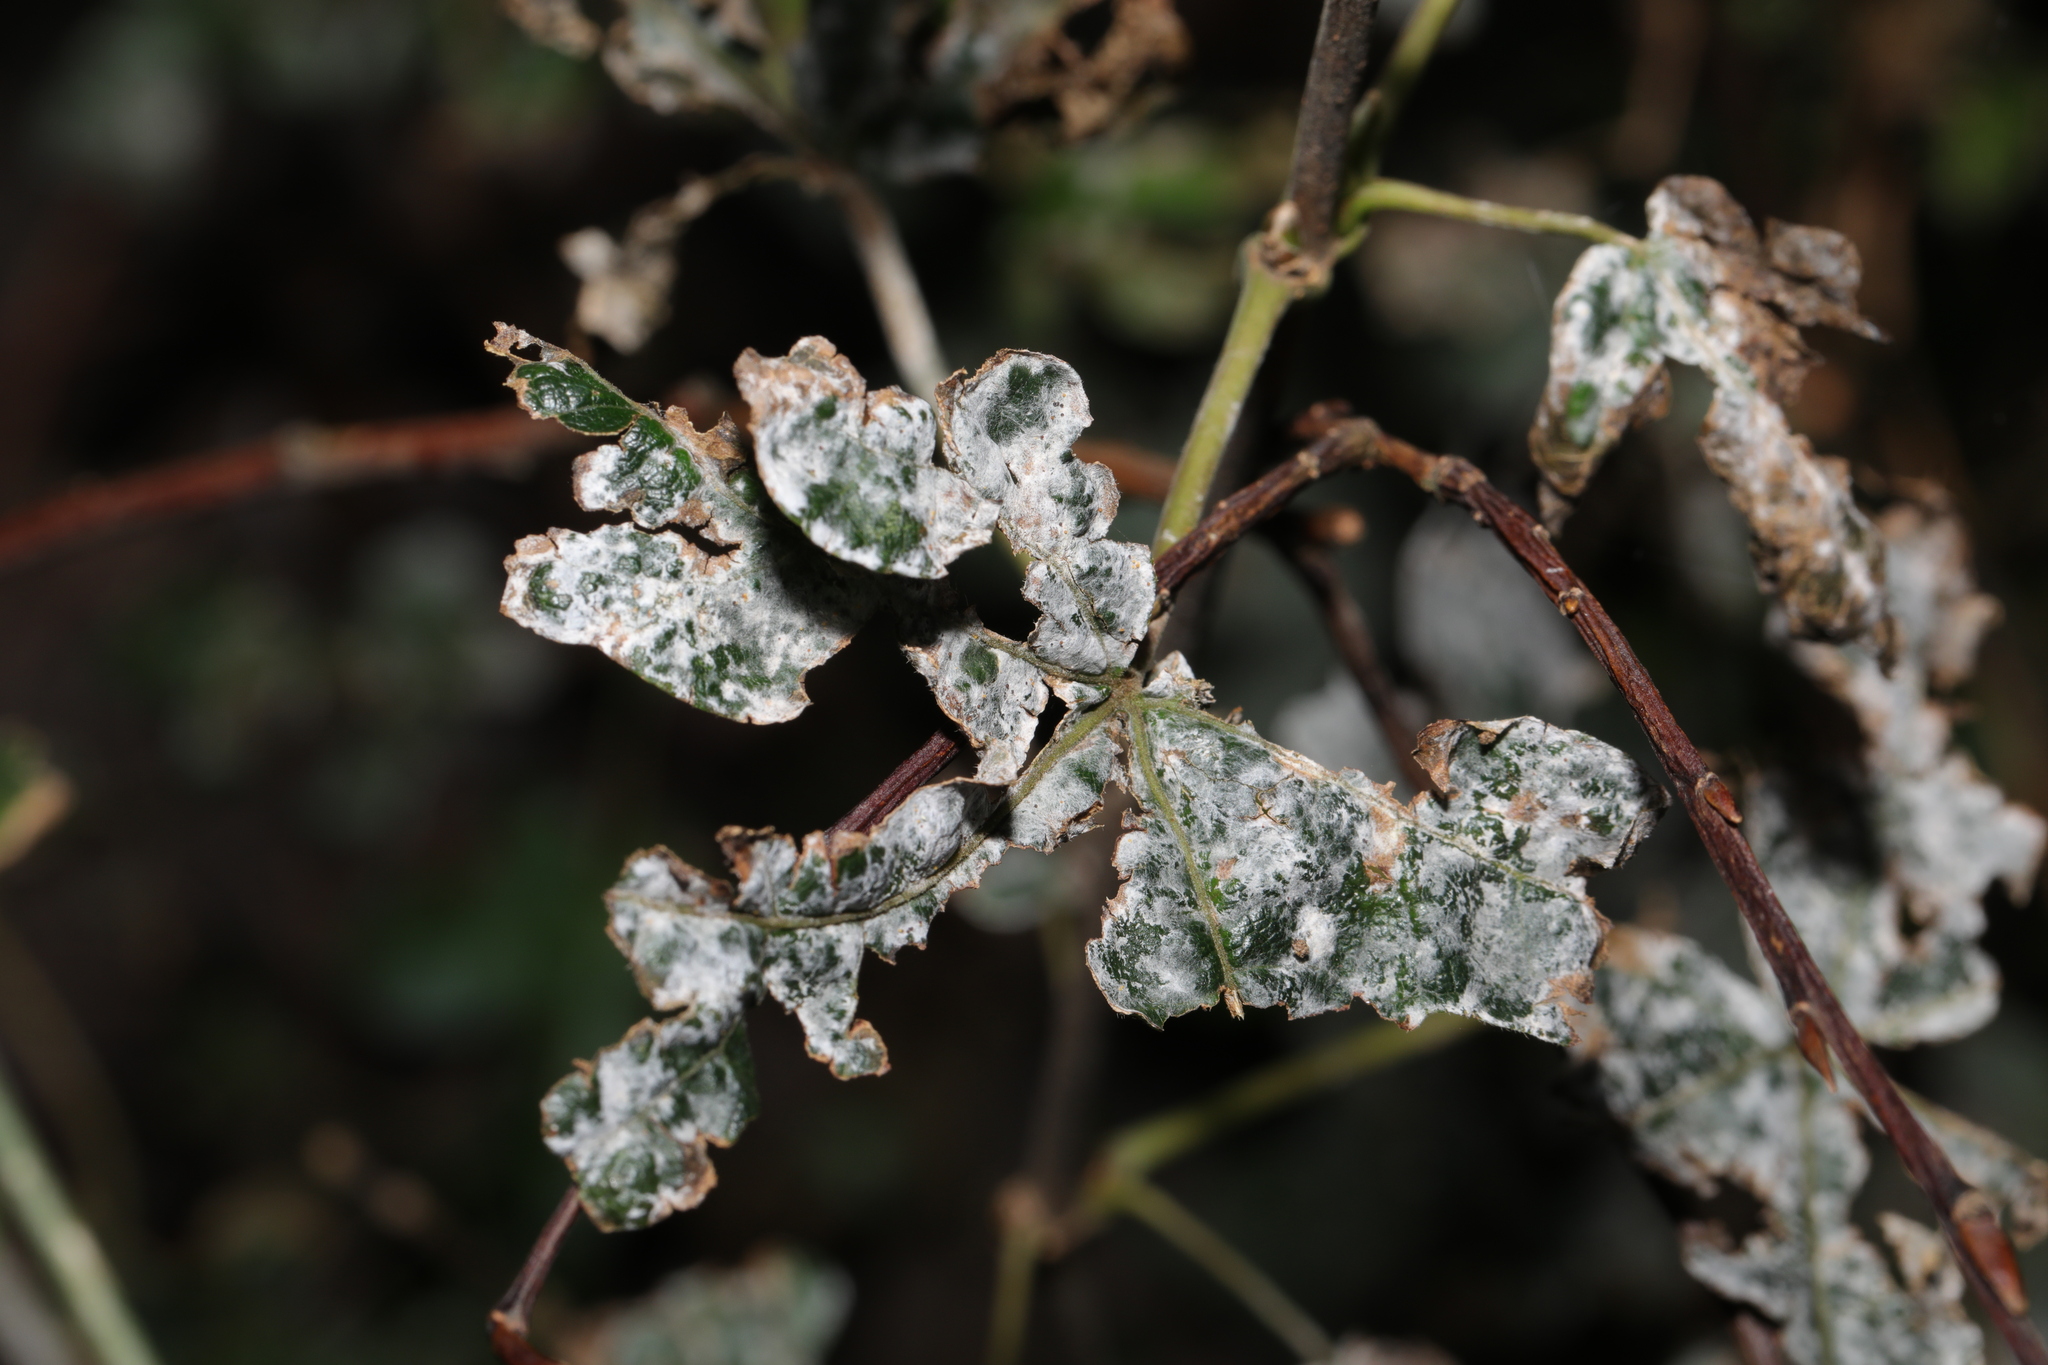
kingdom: Fungi
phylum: Ascomycota
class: Leotiomycetes
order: Helotiales
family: Erysiphaceae
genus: Sawadaea
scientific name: Sawadaea tulasnei
